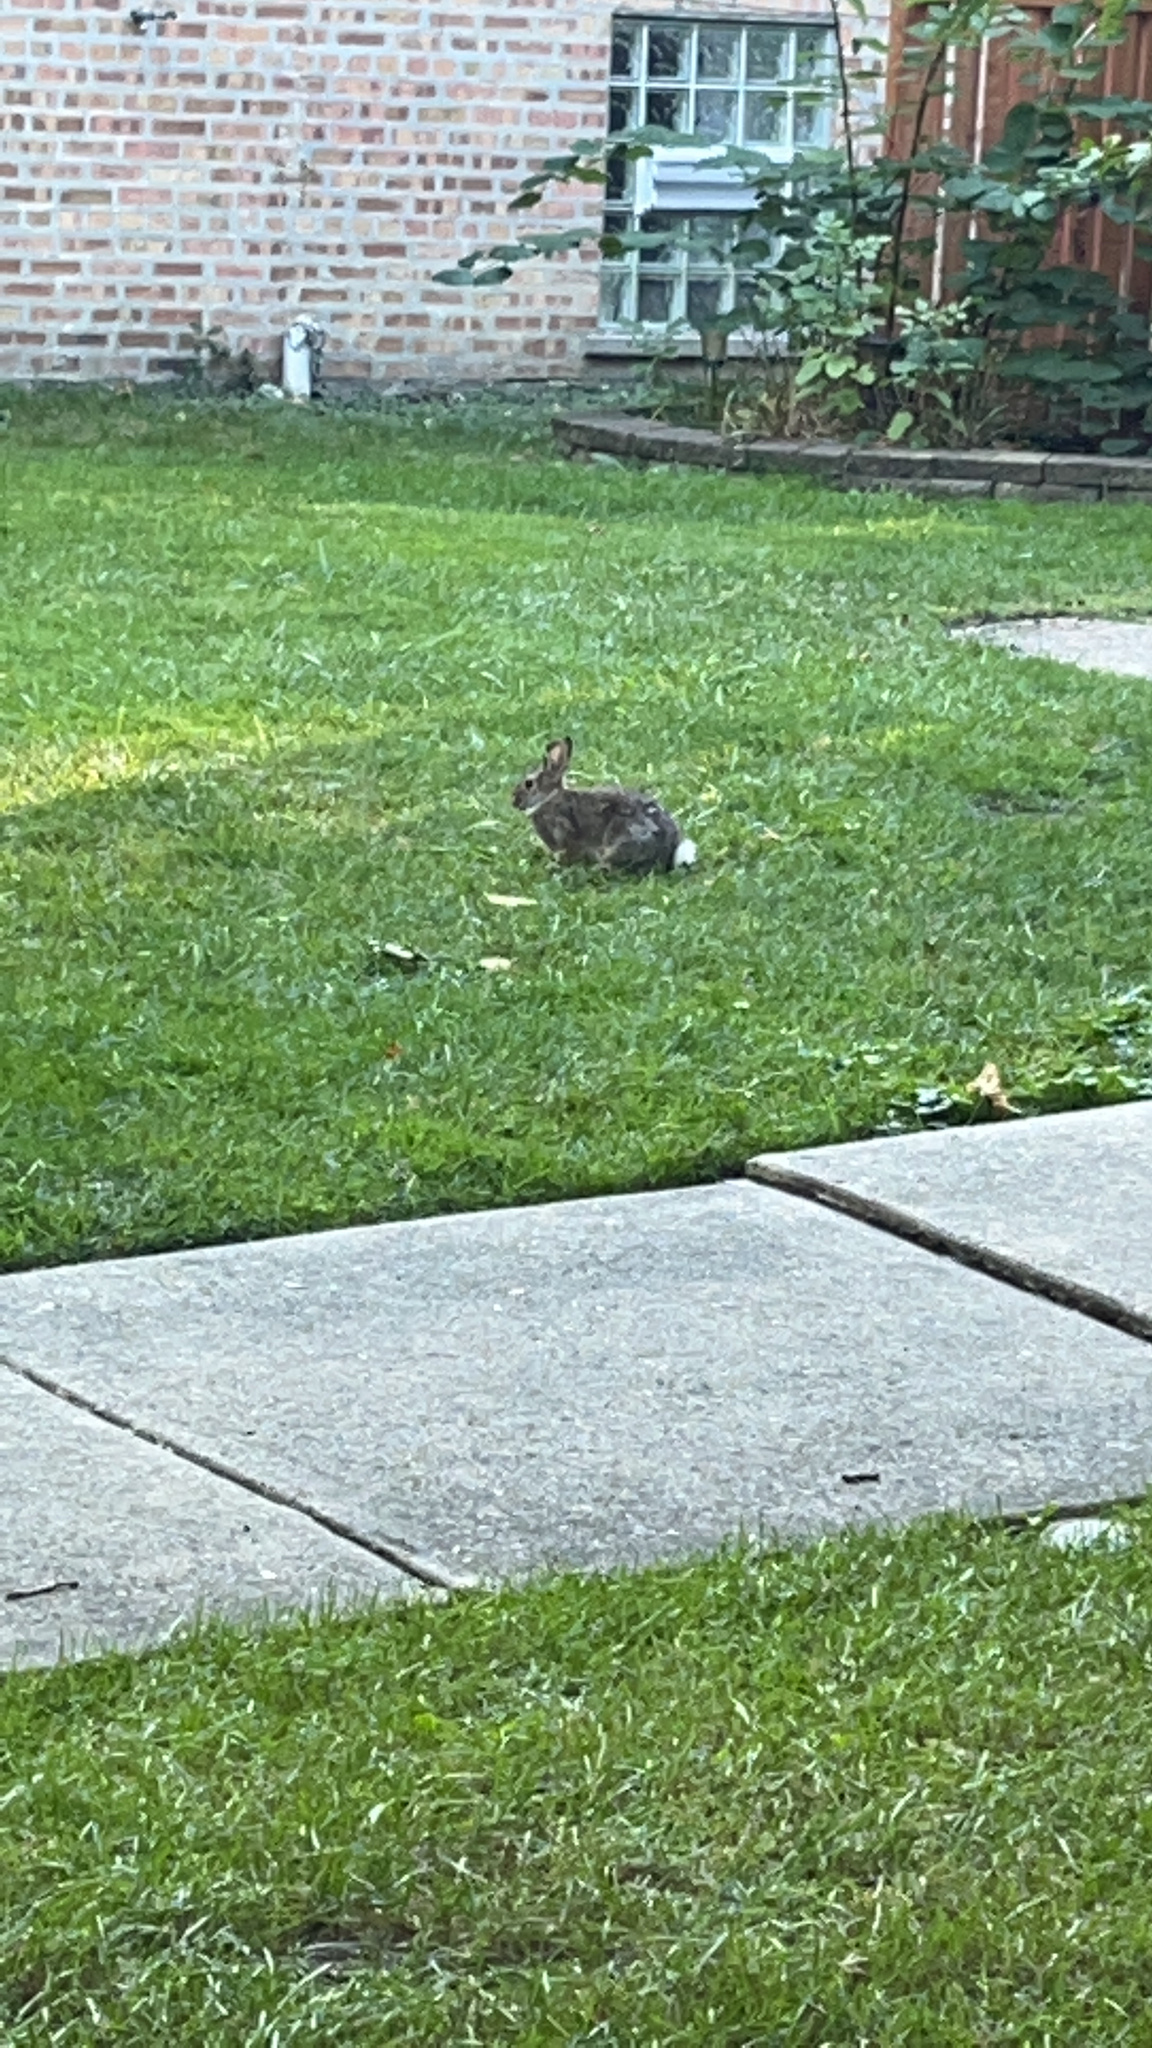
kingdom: Animalia
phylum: Chordata
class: Mammalia
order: Lagomorpha
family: Leporidae
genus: Sylvilagus
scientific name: Sylvilagus floridanus
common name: Eastern cottontail
